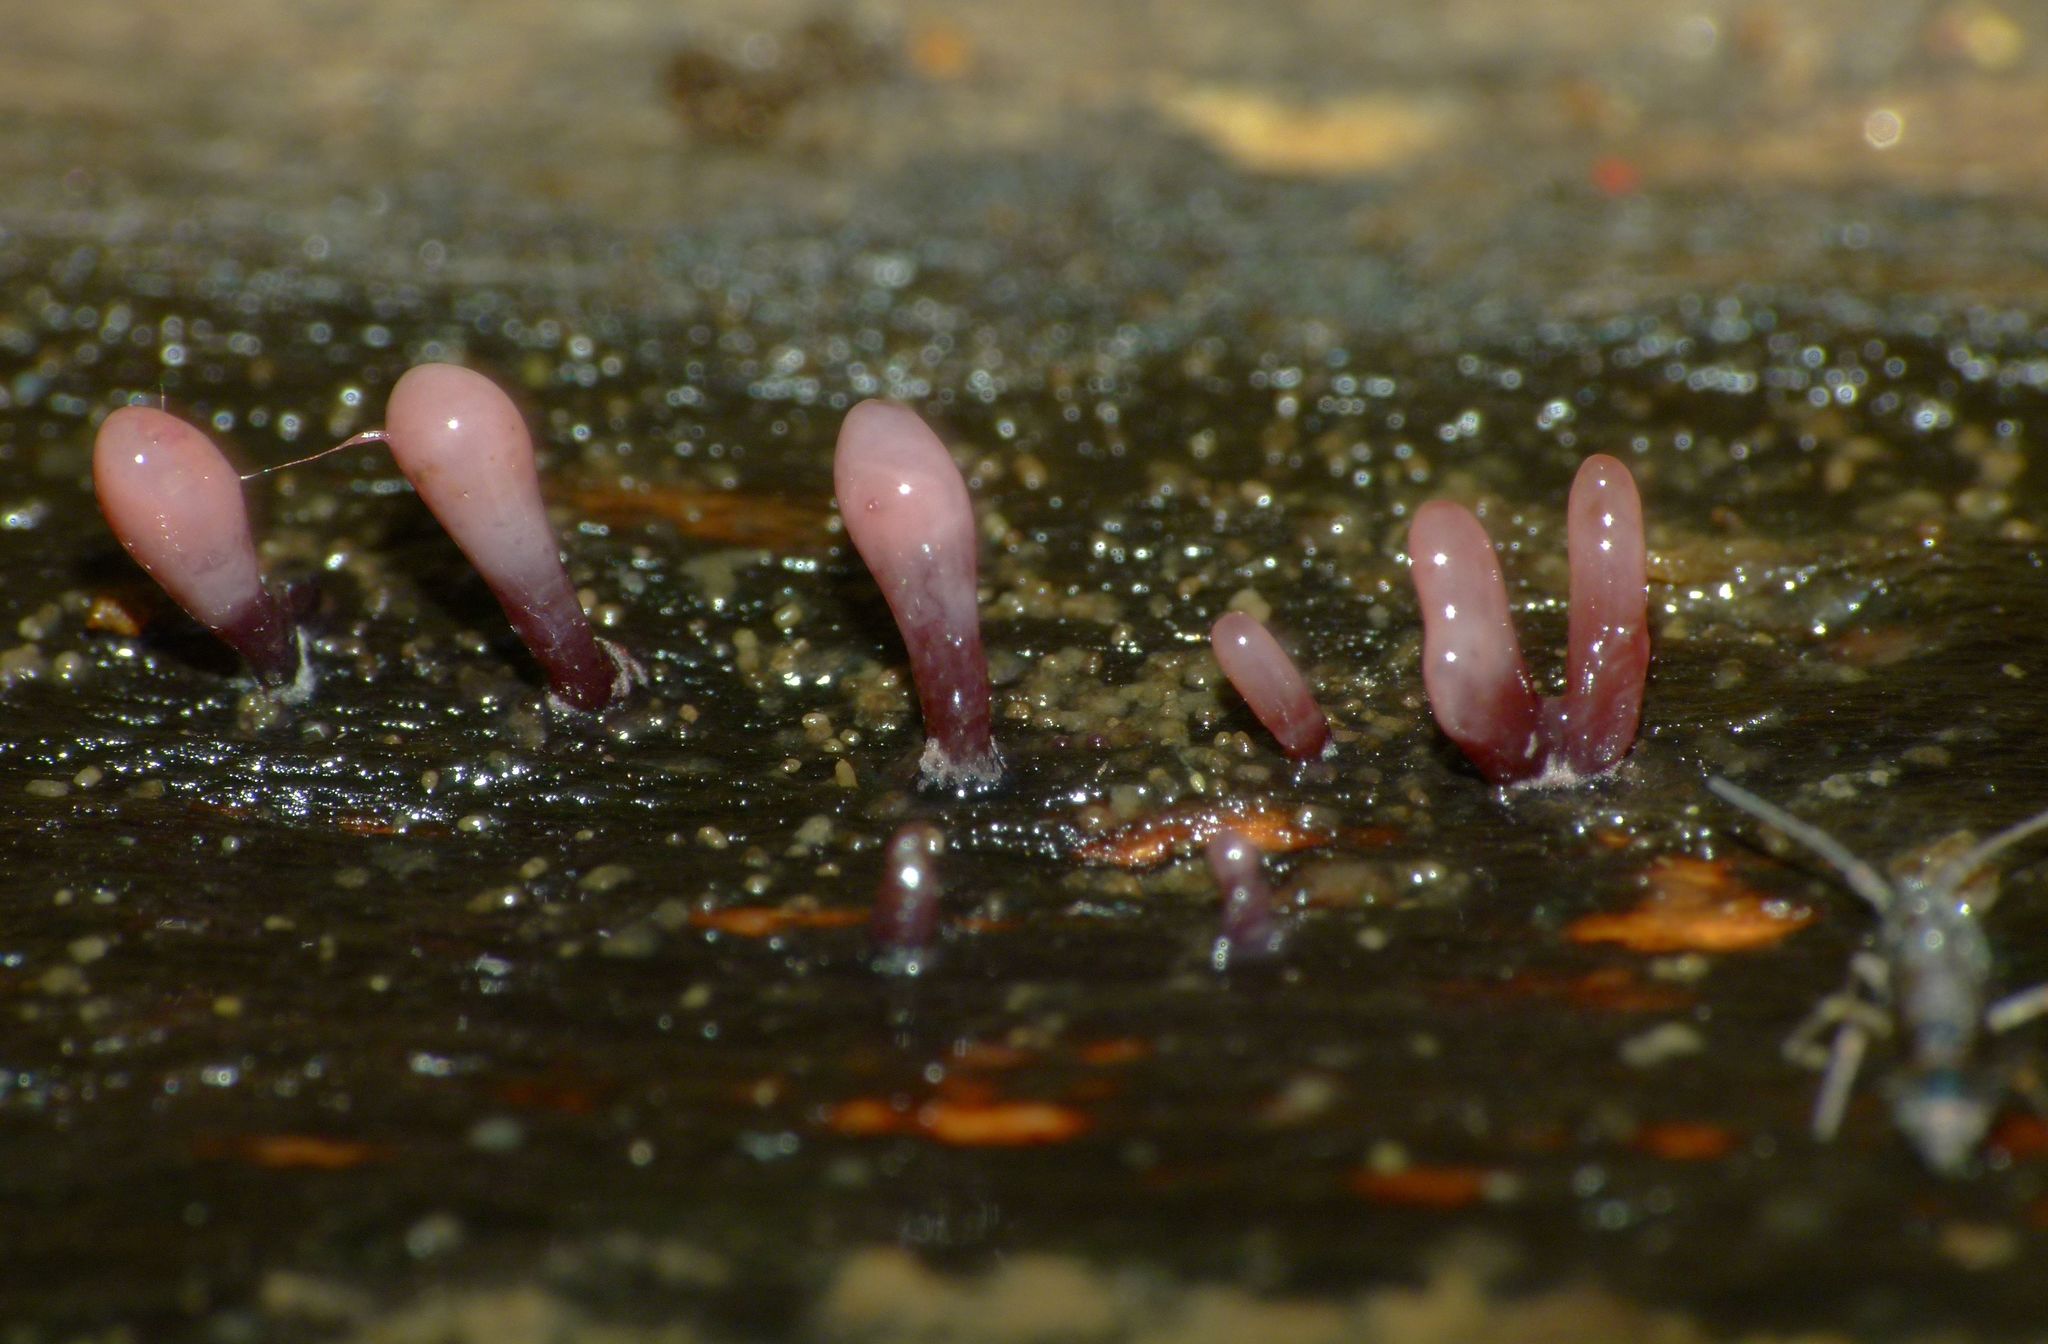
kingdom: Fungi
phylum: Ascomycota
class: Leotiomycetes
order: Helotiales
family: Gelatinodiscaceae
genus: Ascocoryne
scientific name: Ascocoryne sarcoides
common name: Purple jellydisc
